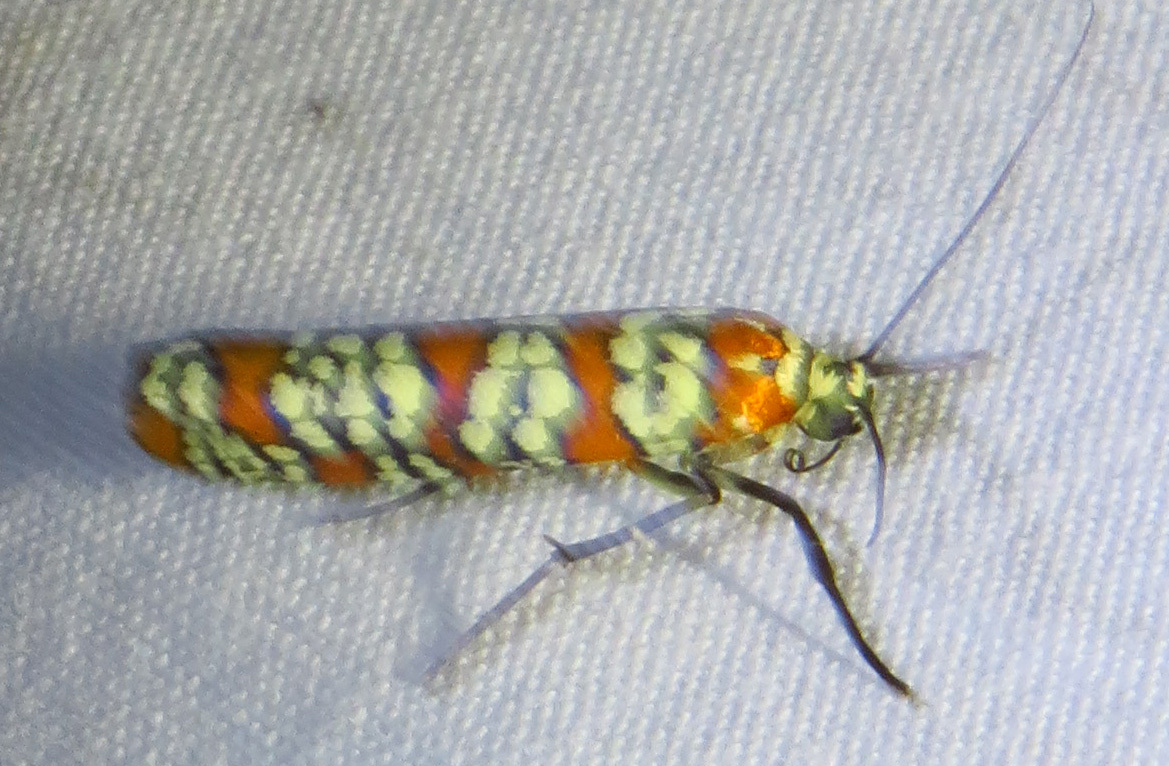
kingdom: Animalia
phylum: Arthropoda
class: Insecta
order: Lepidoptera
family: Attevidae
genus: Atteva
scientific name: Atteva punctella
